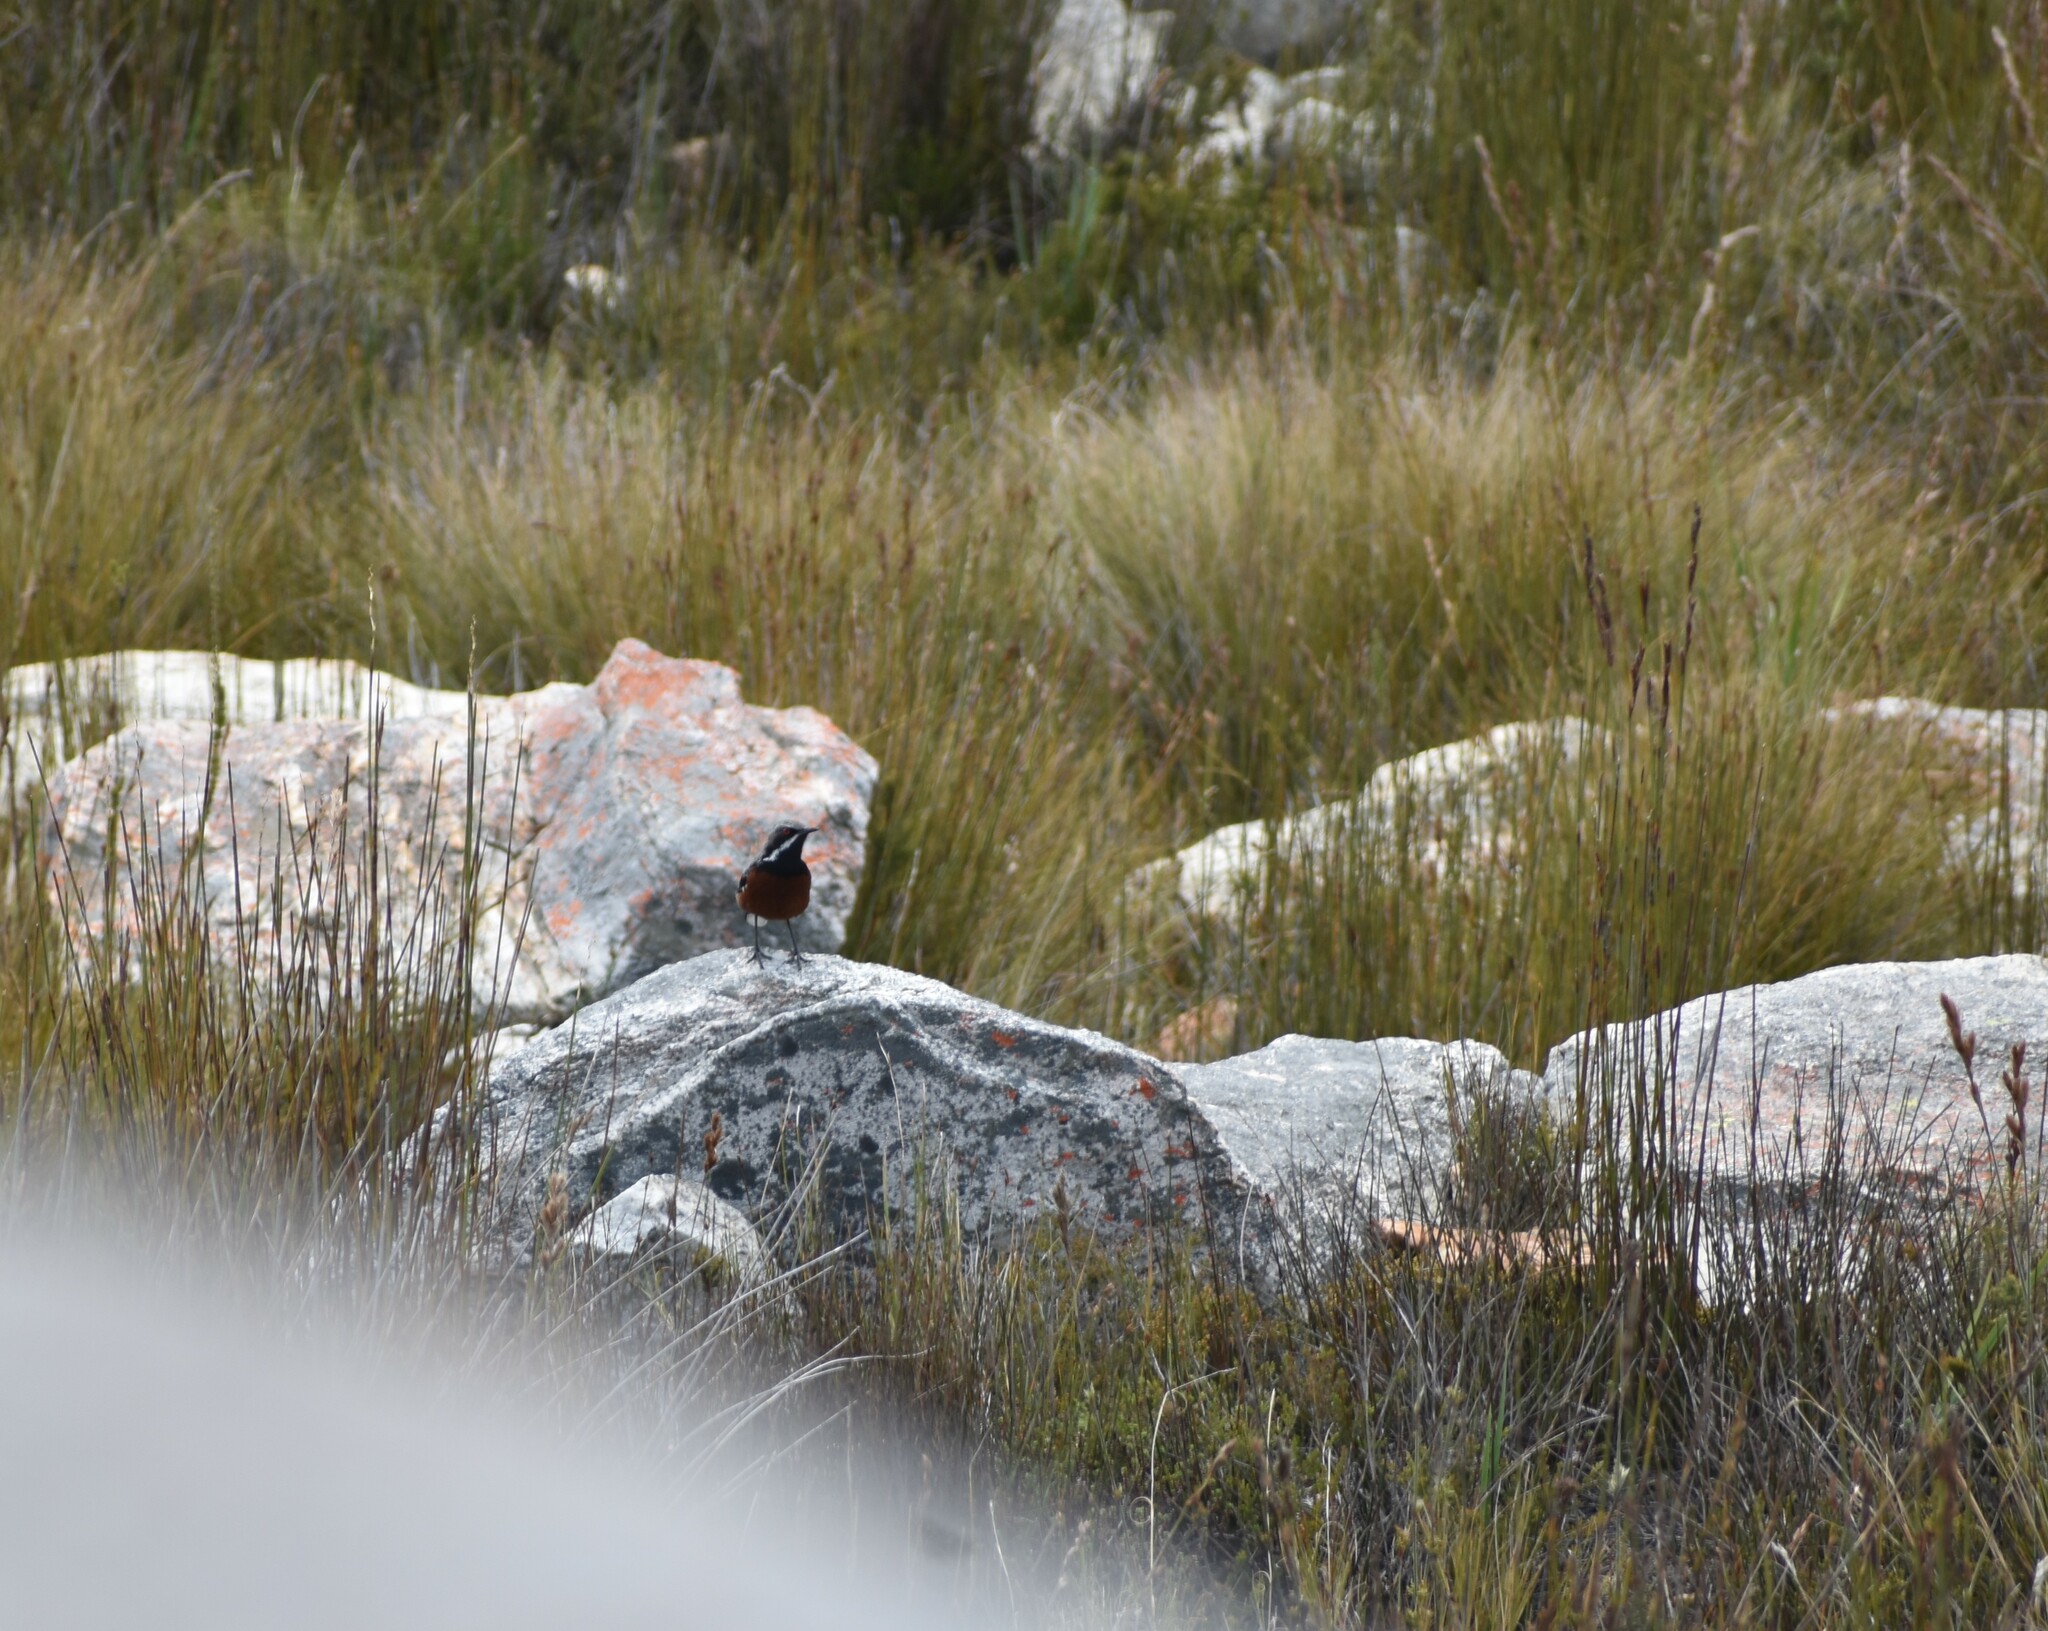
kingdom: Animalia
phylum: Chordata
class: Aves
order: Passeriformes
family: Chaetopidae
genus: Chaetops
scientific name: Chaetops frenatus
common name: Cape rockjumper
